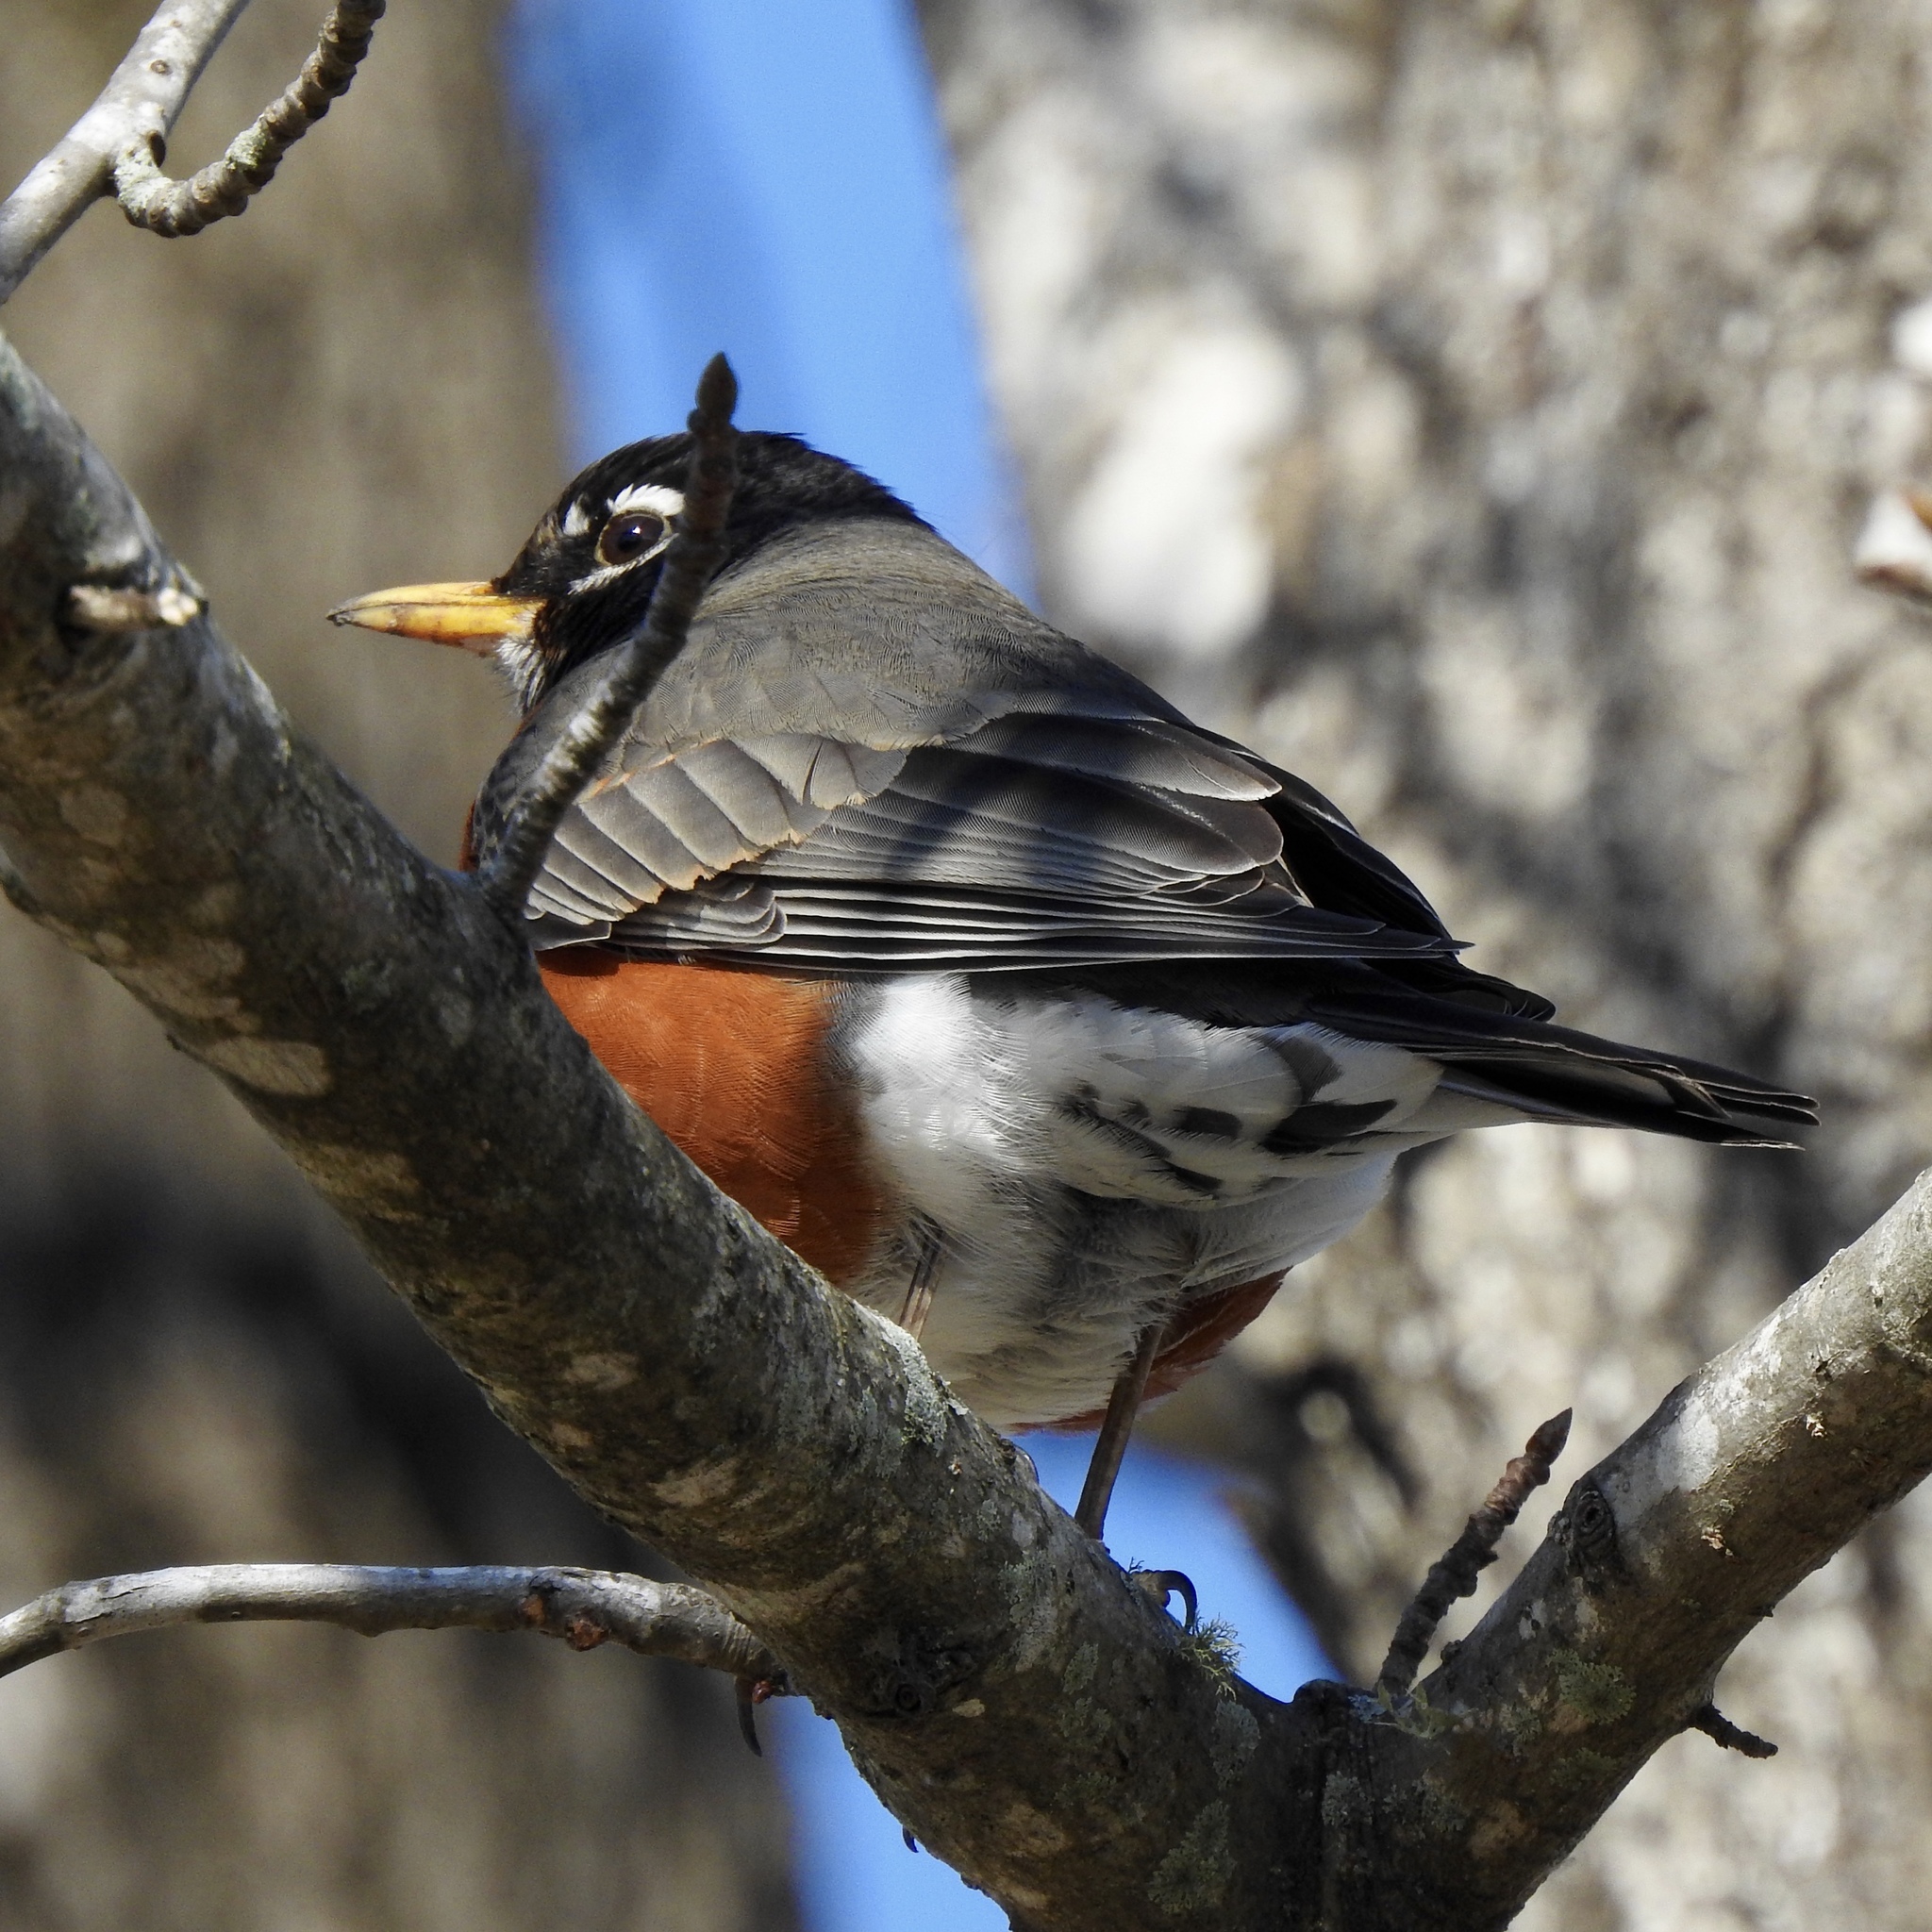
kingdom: Animalia
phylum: Chordata
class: Aves
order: Passeriformes
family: Turdidae
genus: Turdus
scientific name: Turdus migratorius
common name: American robin
